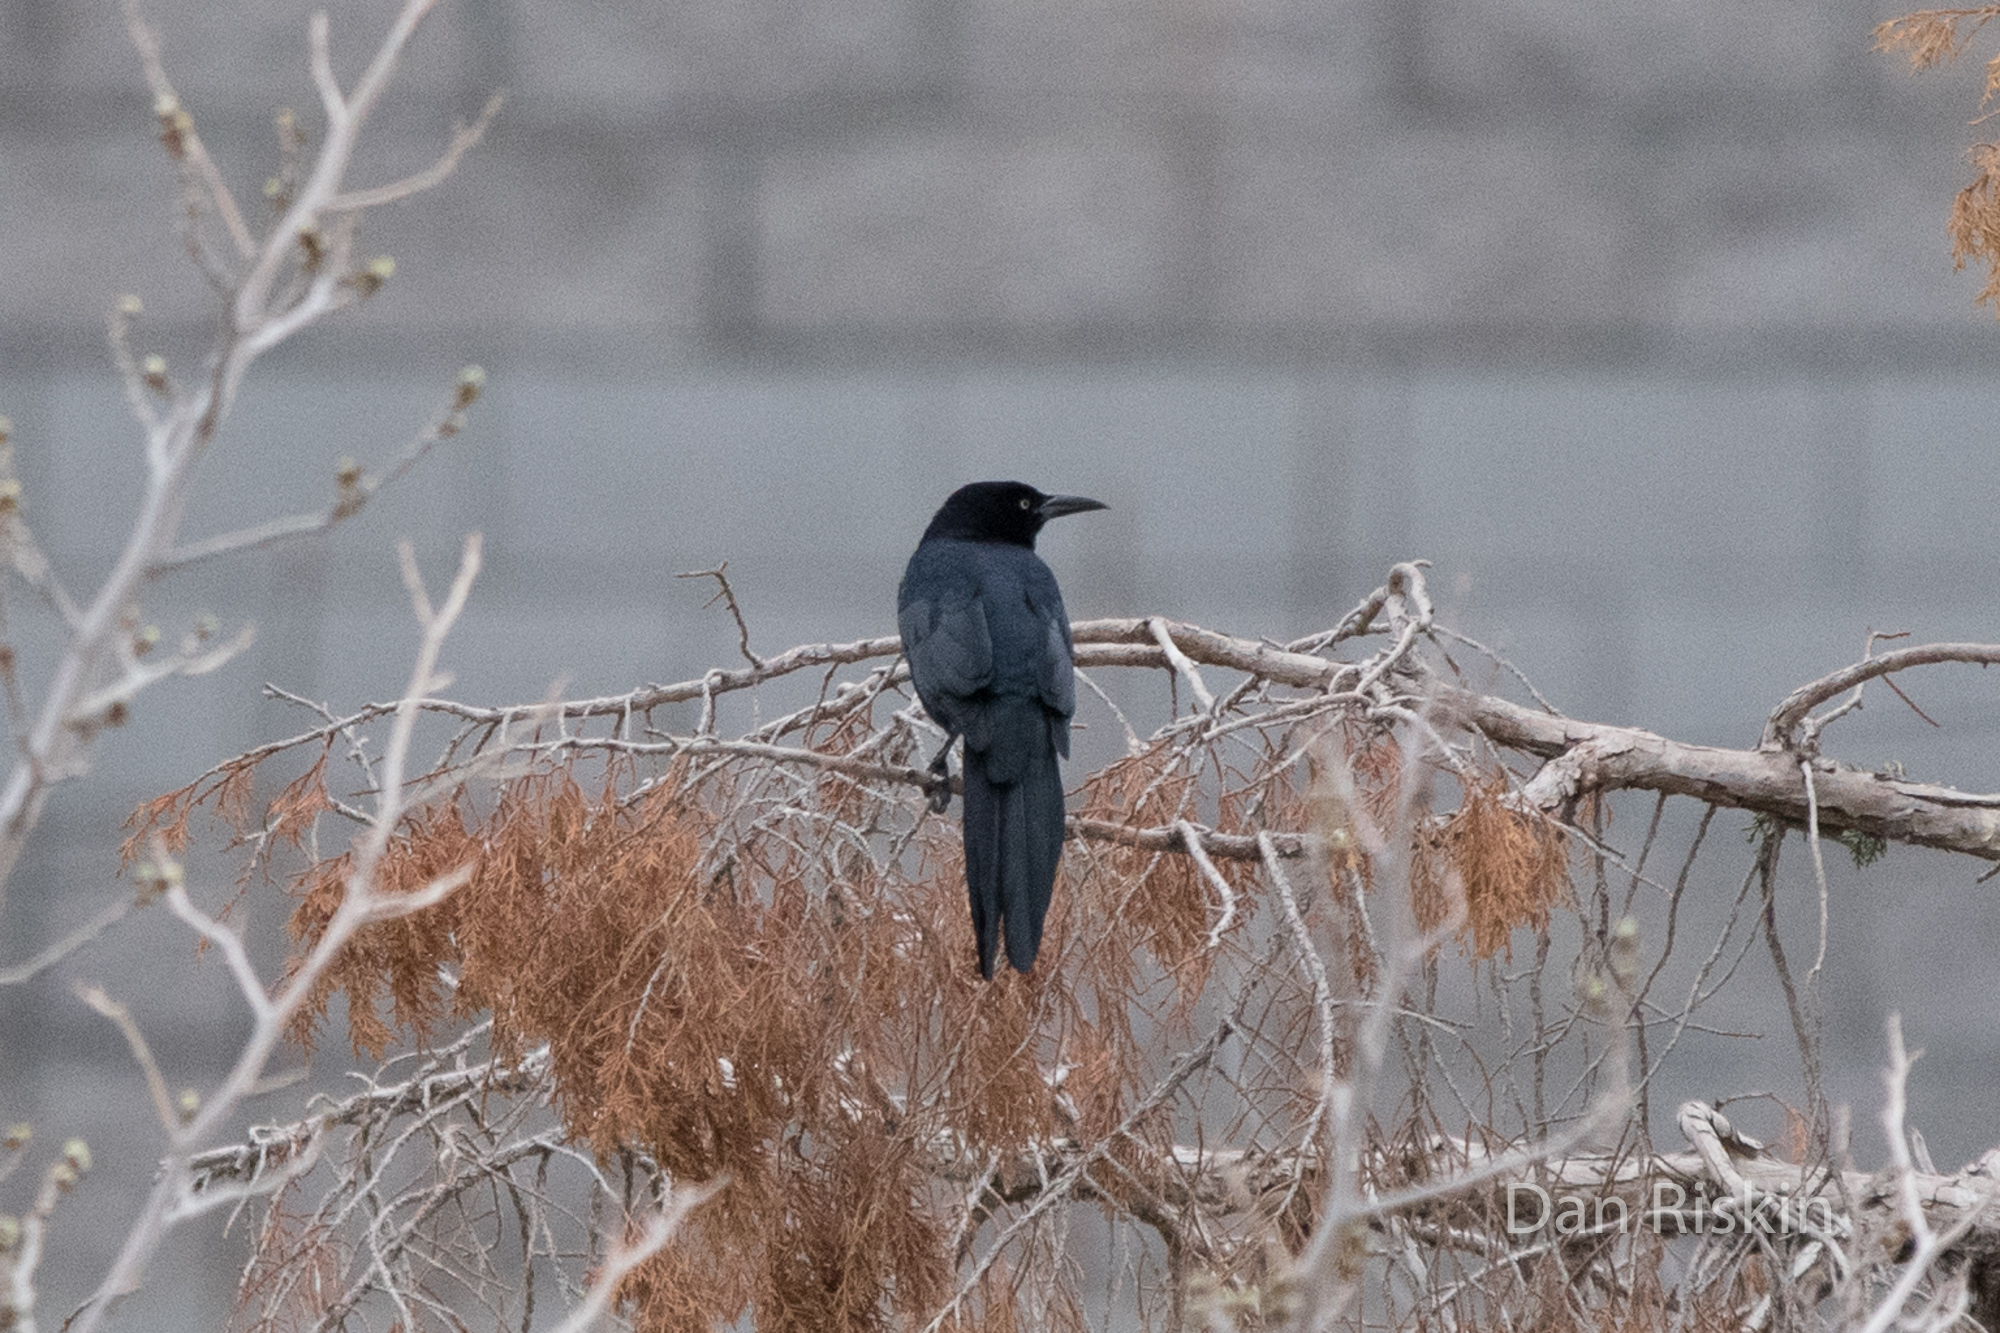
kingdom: Animalia
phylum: Chordata
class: Aves
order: Passeriformes
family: Icteridae
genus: Quiscalus
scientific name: Quiscalus mexicanus
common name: Great-tailed grackle
